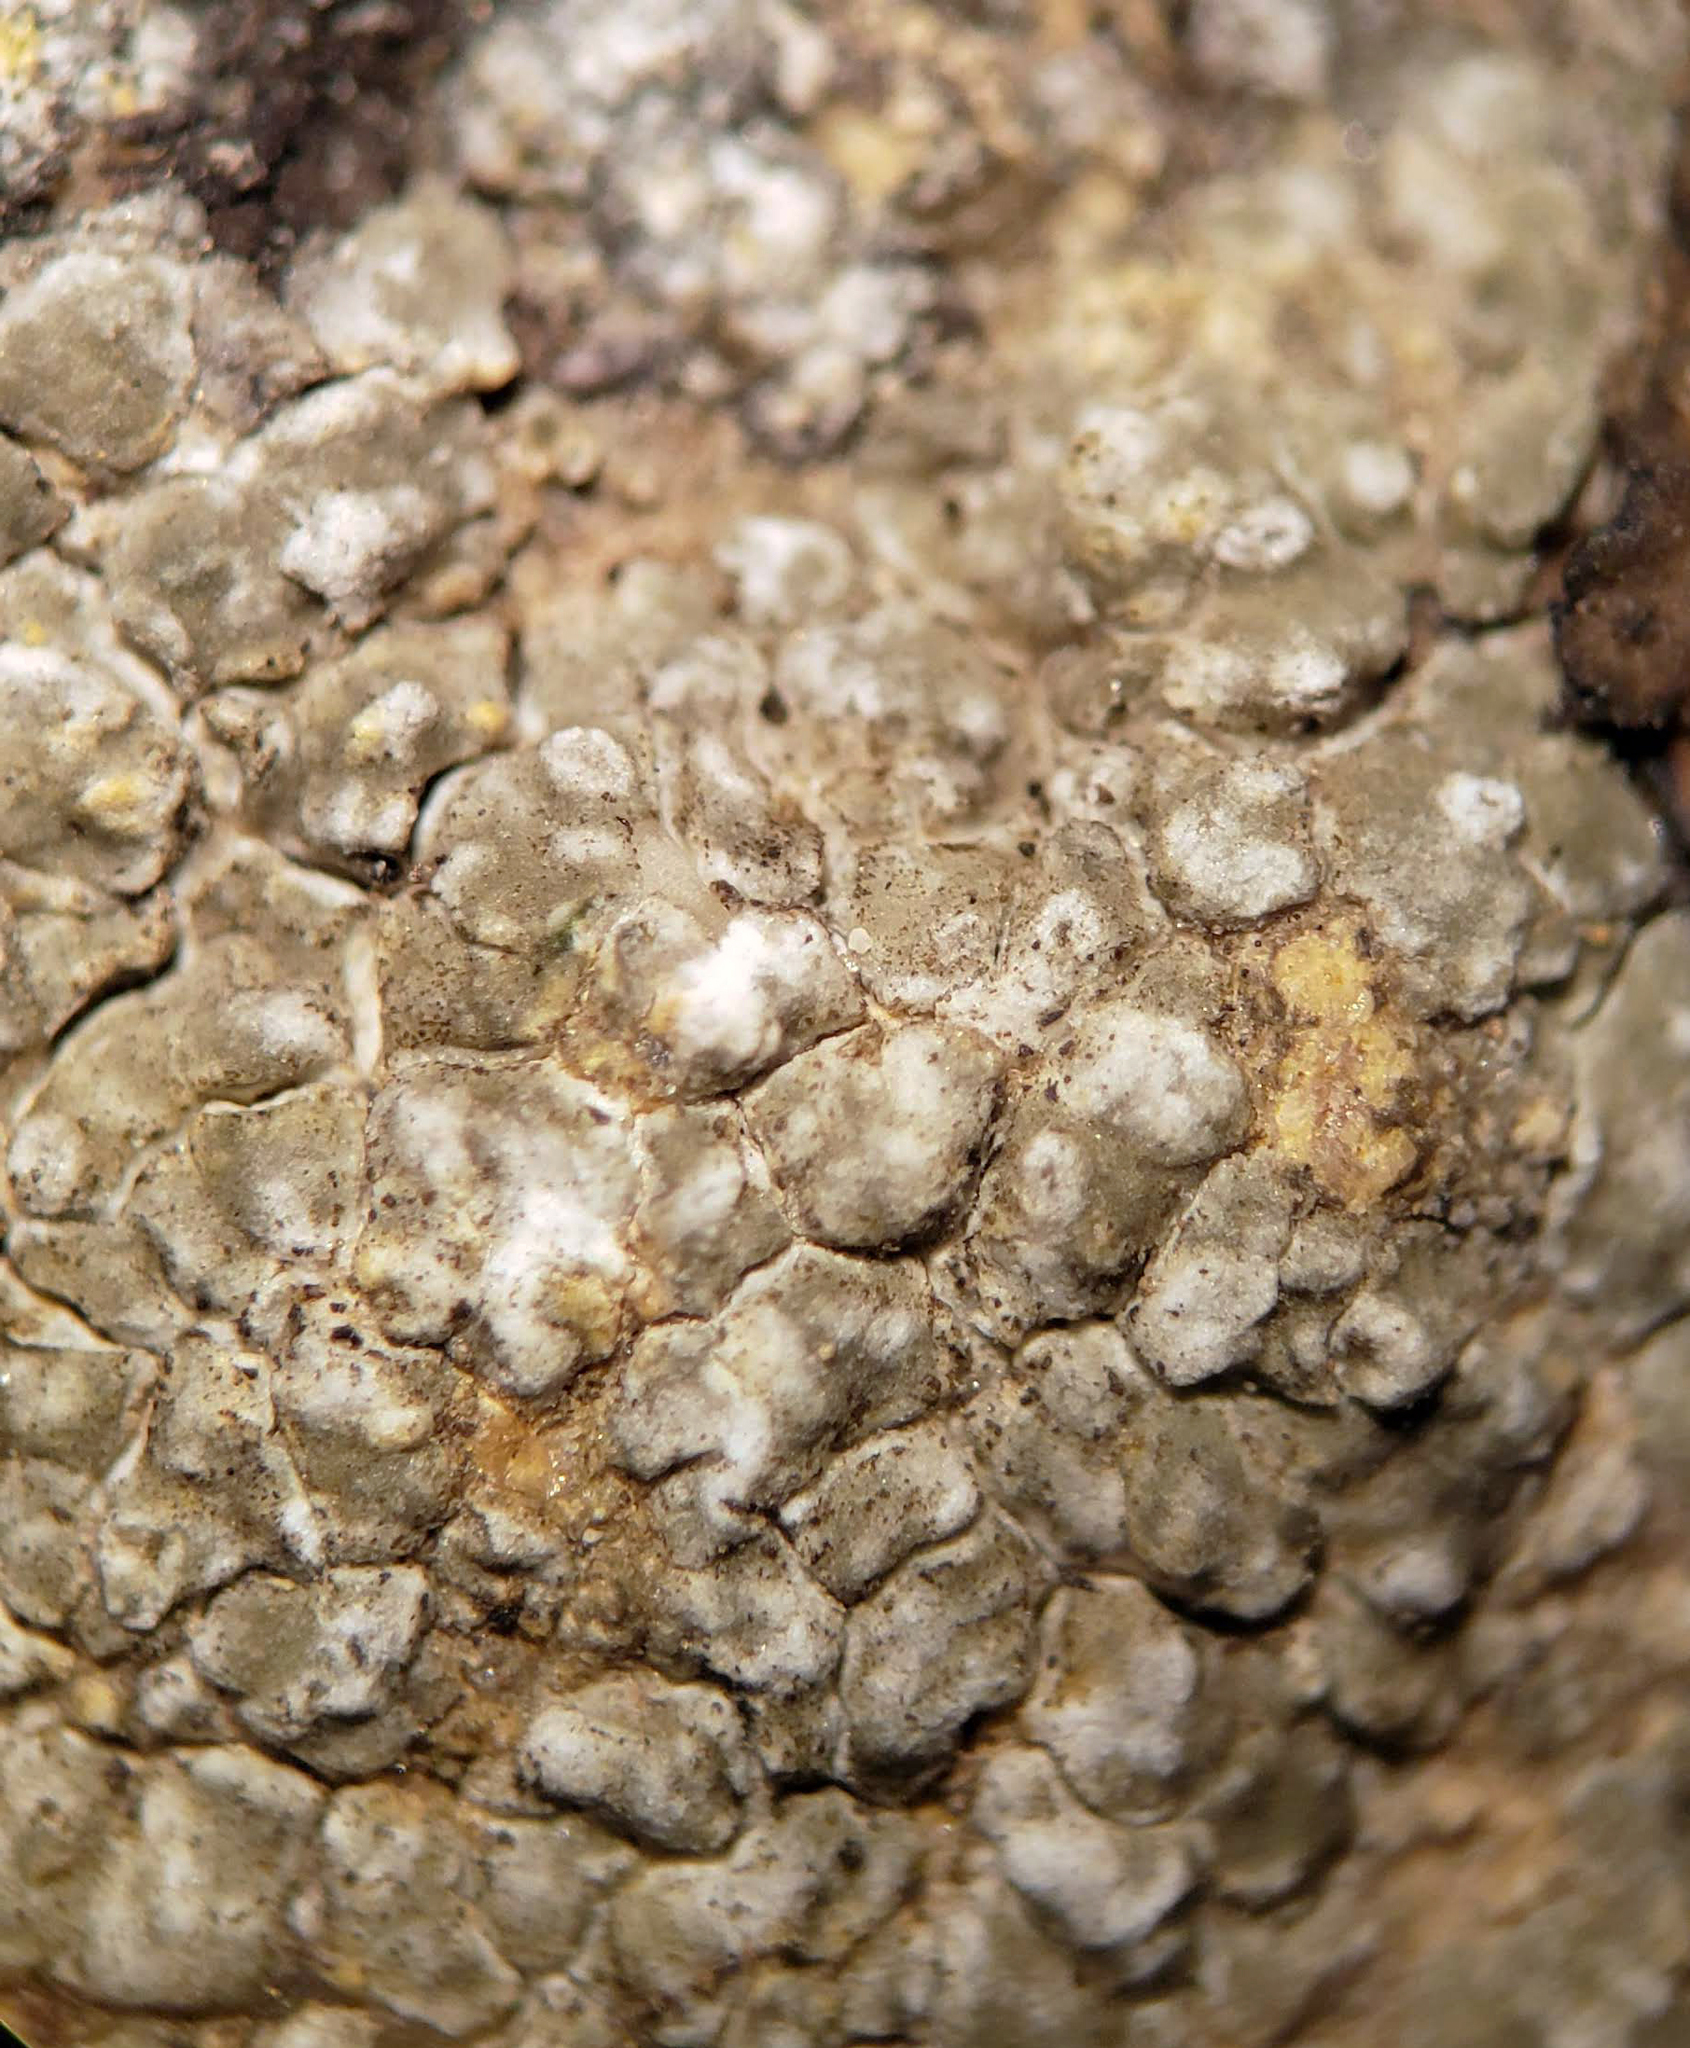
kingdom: Fungi
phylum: Ascomycota
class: Lecanoromycetes
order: Pertusariales
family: Megasporaceae
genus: Circinaria
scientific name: Circinaria contorta
